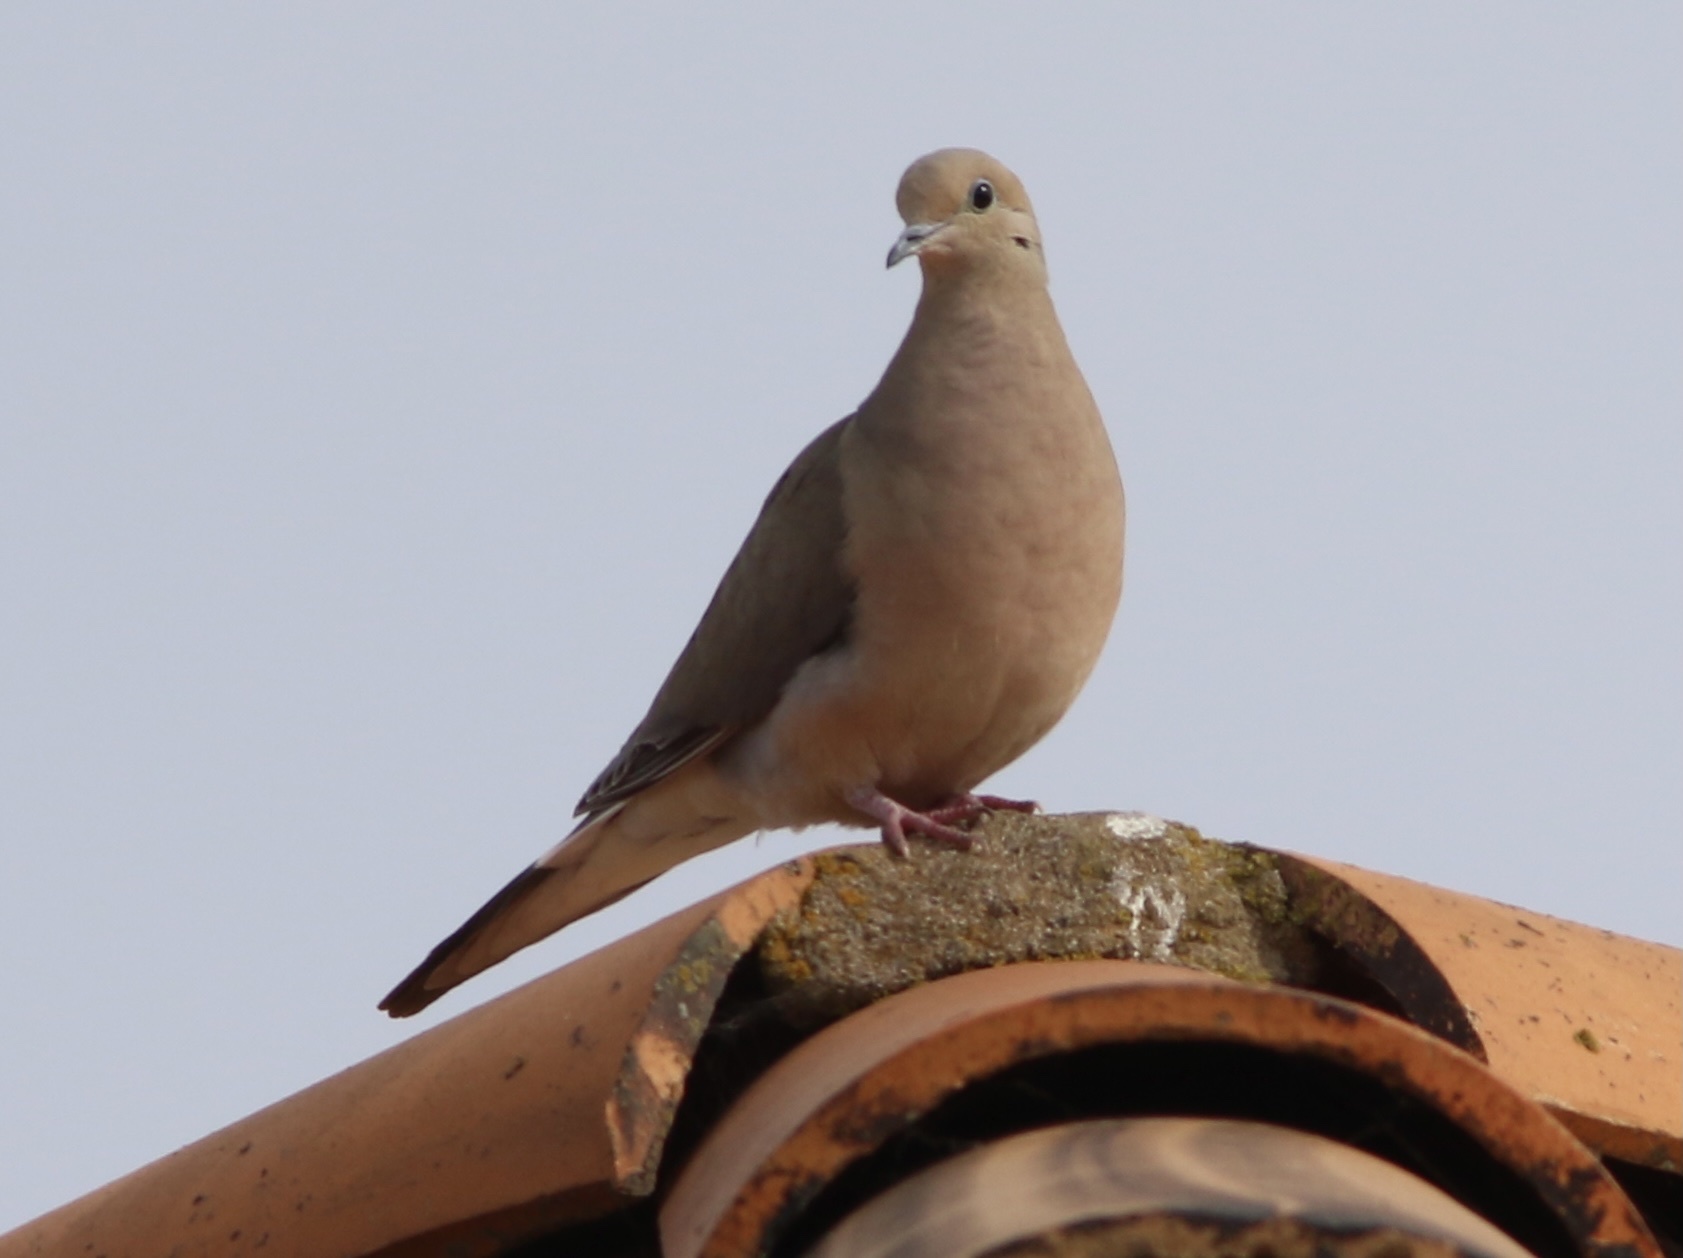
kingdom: Animalia
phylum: Chordata
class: Aves
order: Columbiformes
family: Columbidae
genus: Zenaida
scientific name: Zenaida macroura
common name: Mourning dove
